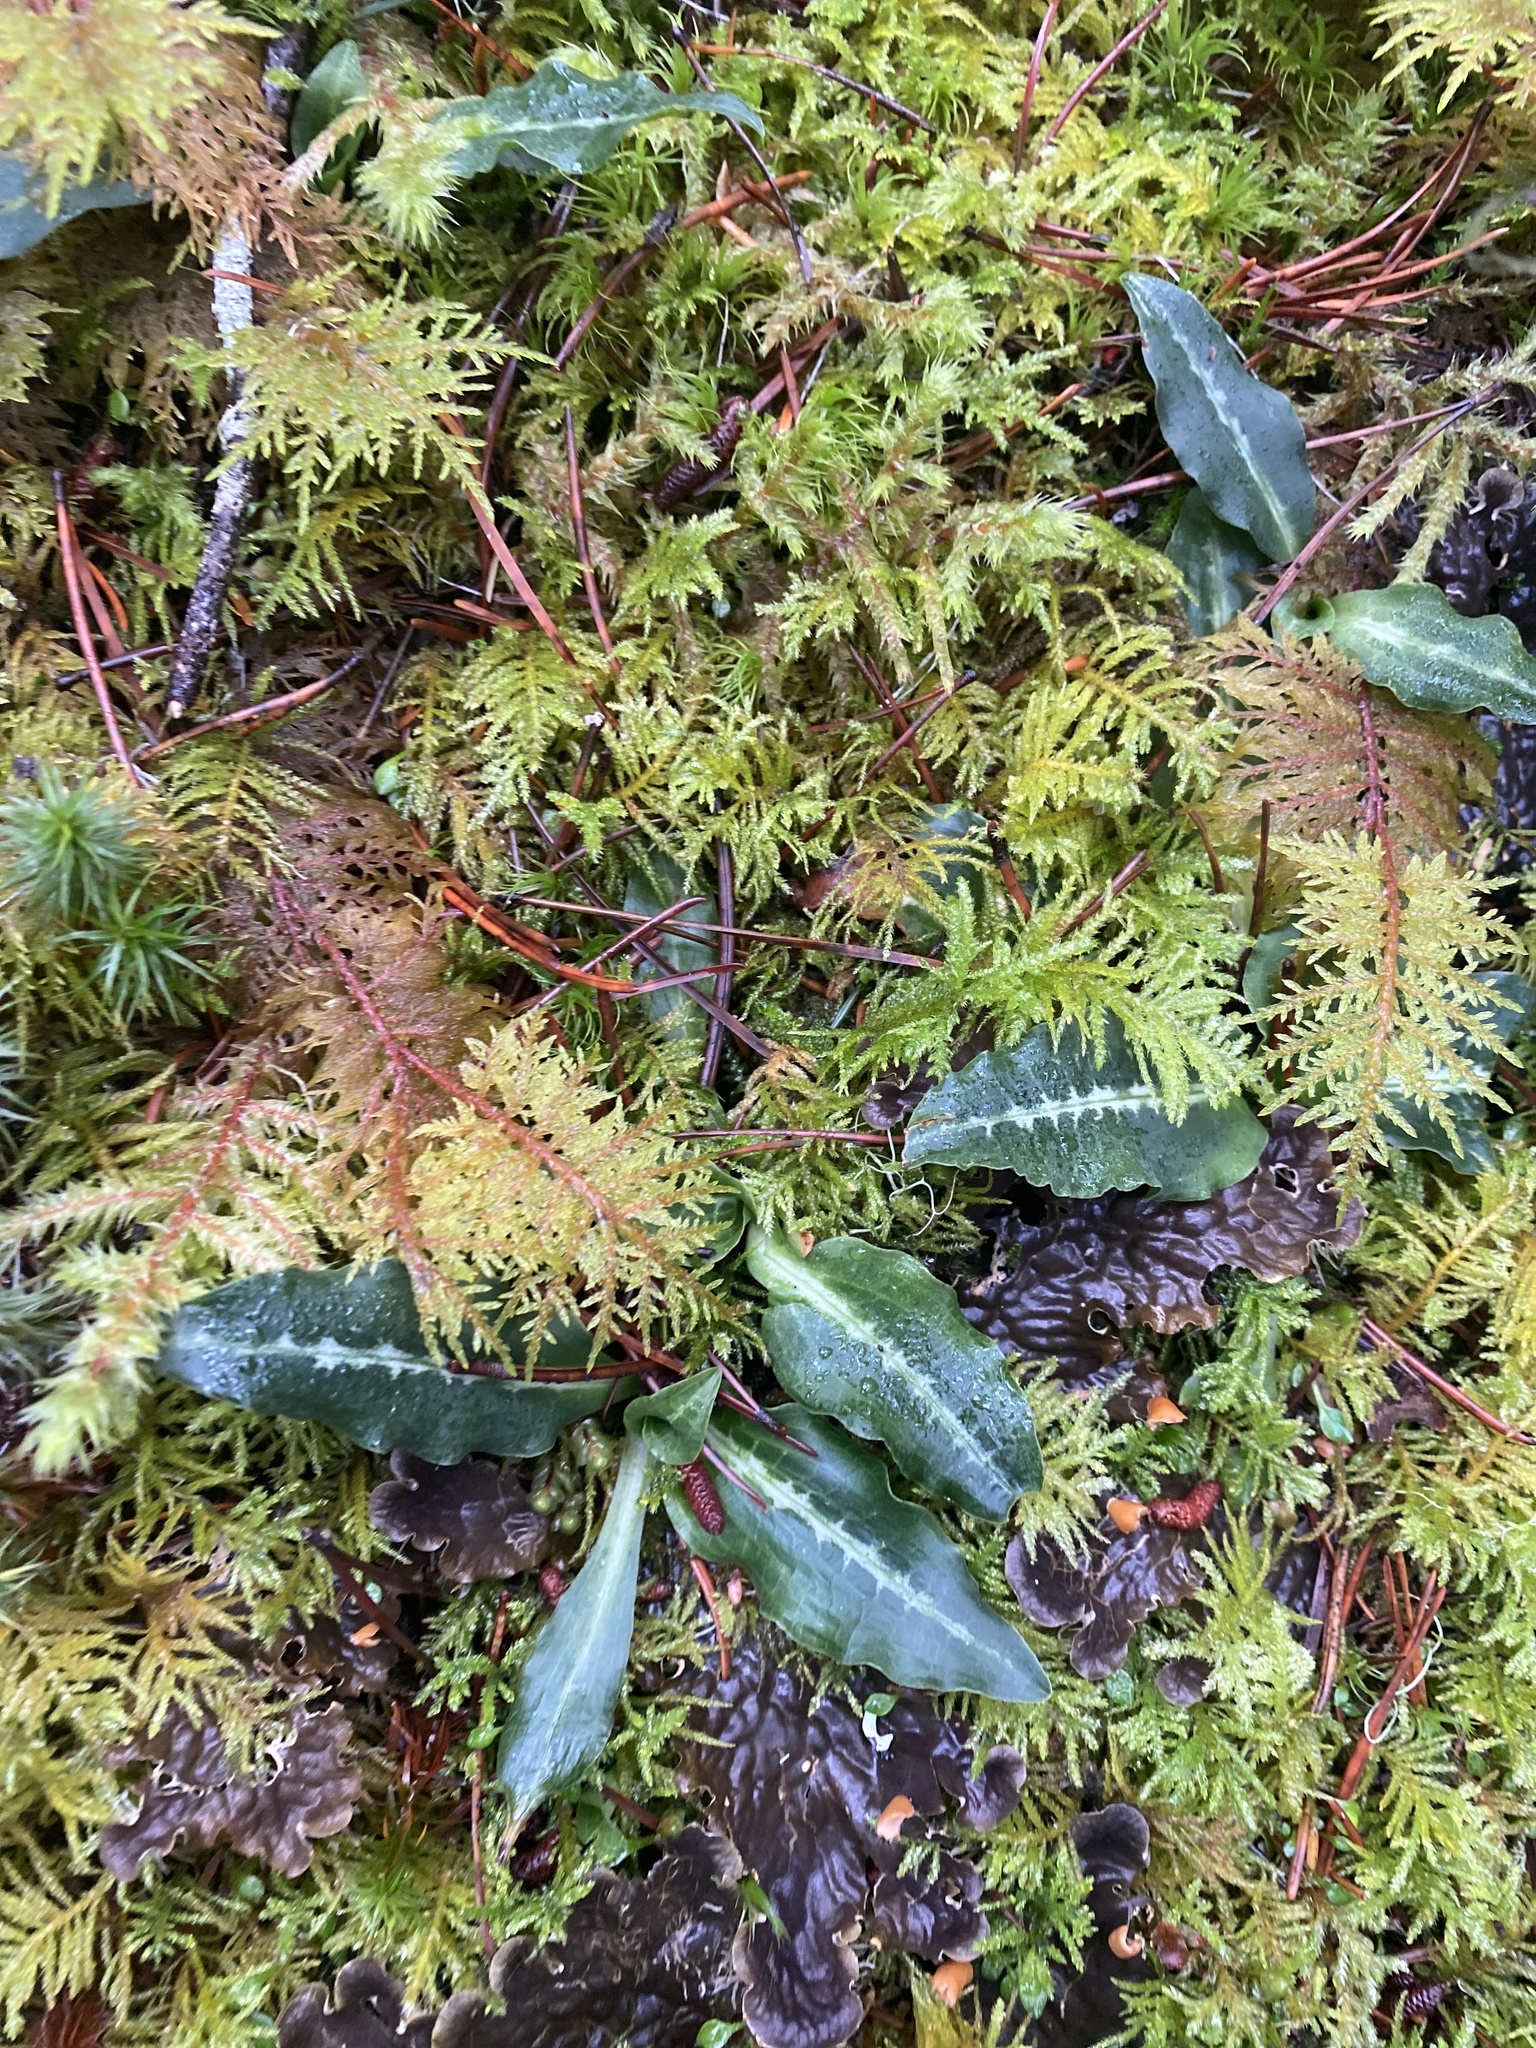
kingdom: Plantae
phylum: Tracheophyta
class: Liliopsida
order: Asparagales
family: Orchidaceae
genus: Goodyera
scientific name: Goodyera oblongifolia
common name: Giant rattlesnake-plantain
